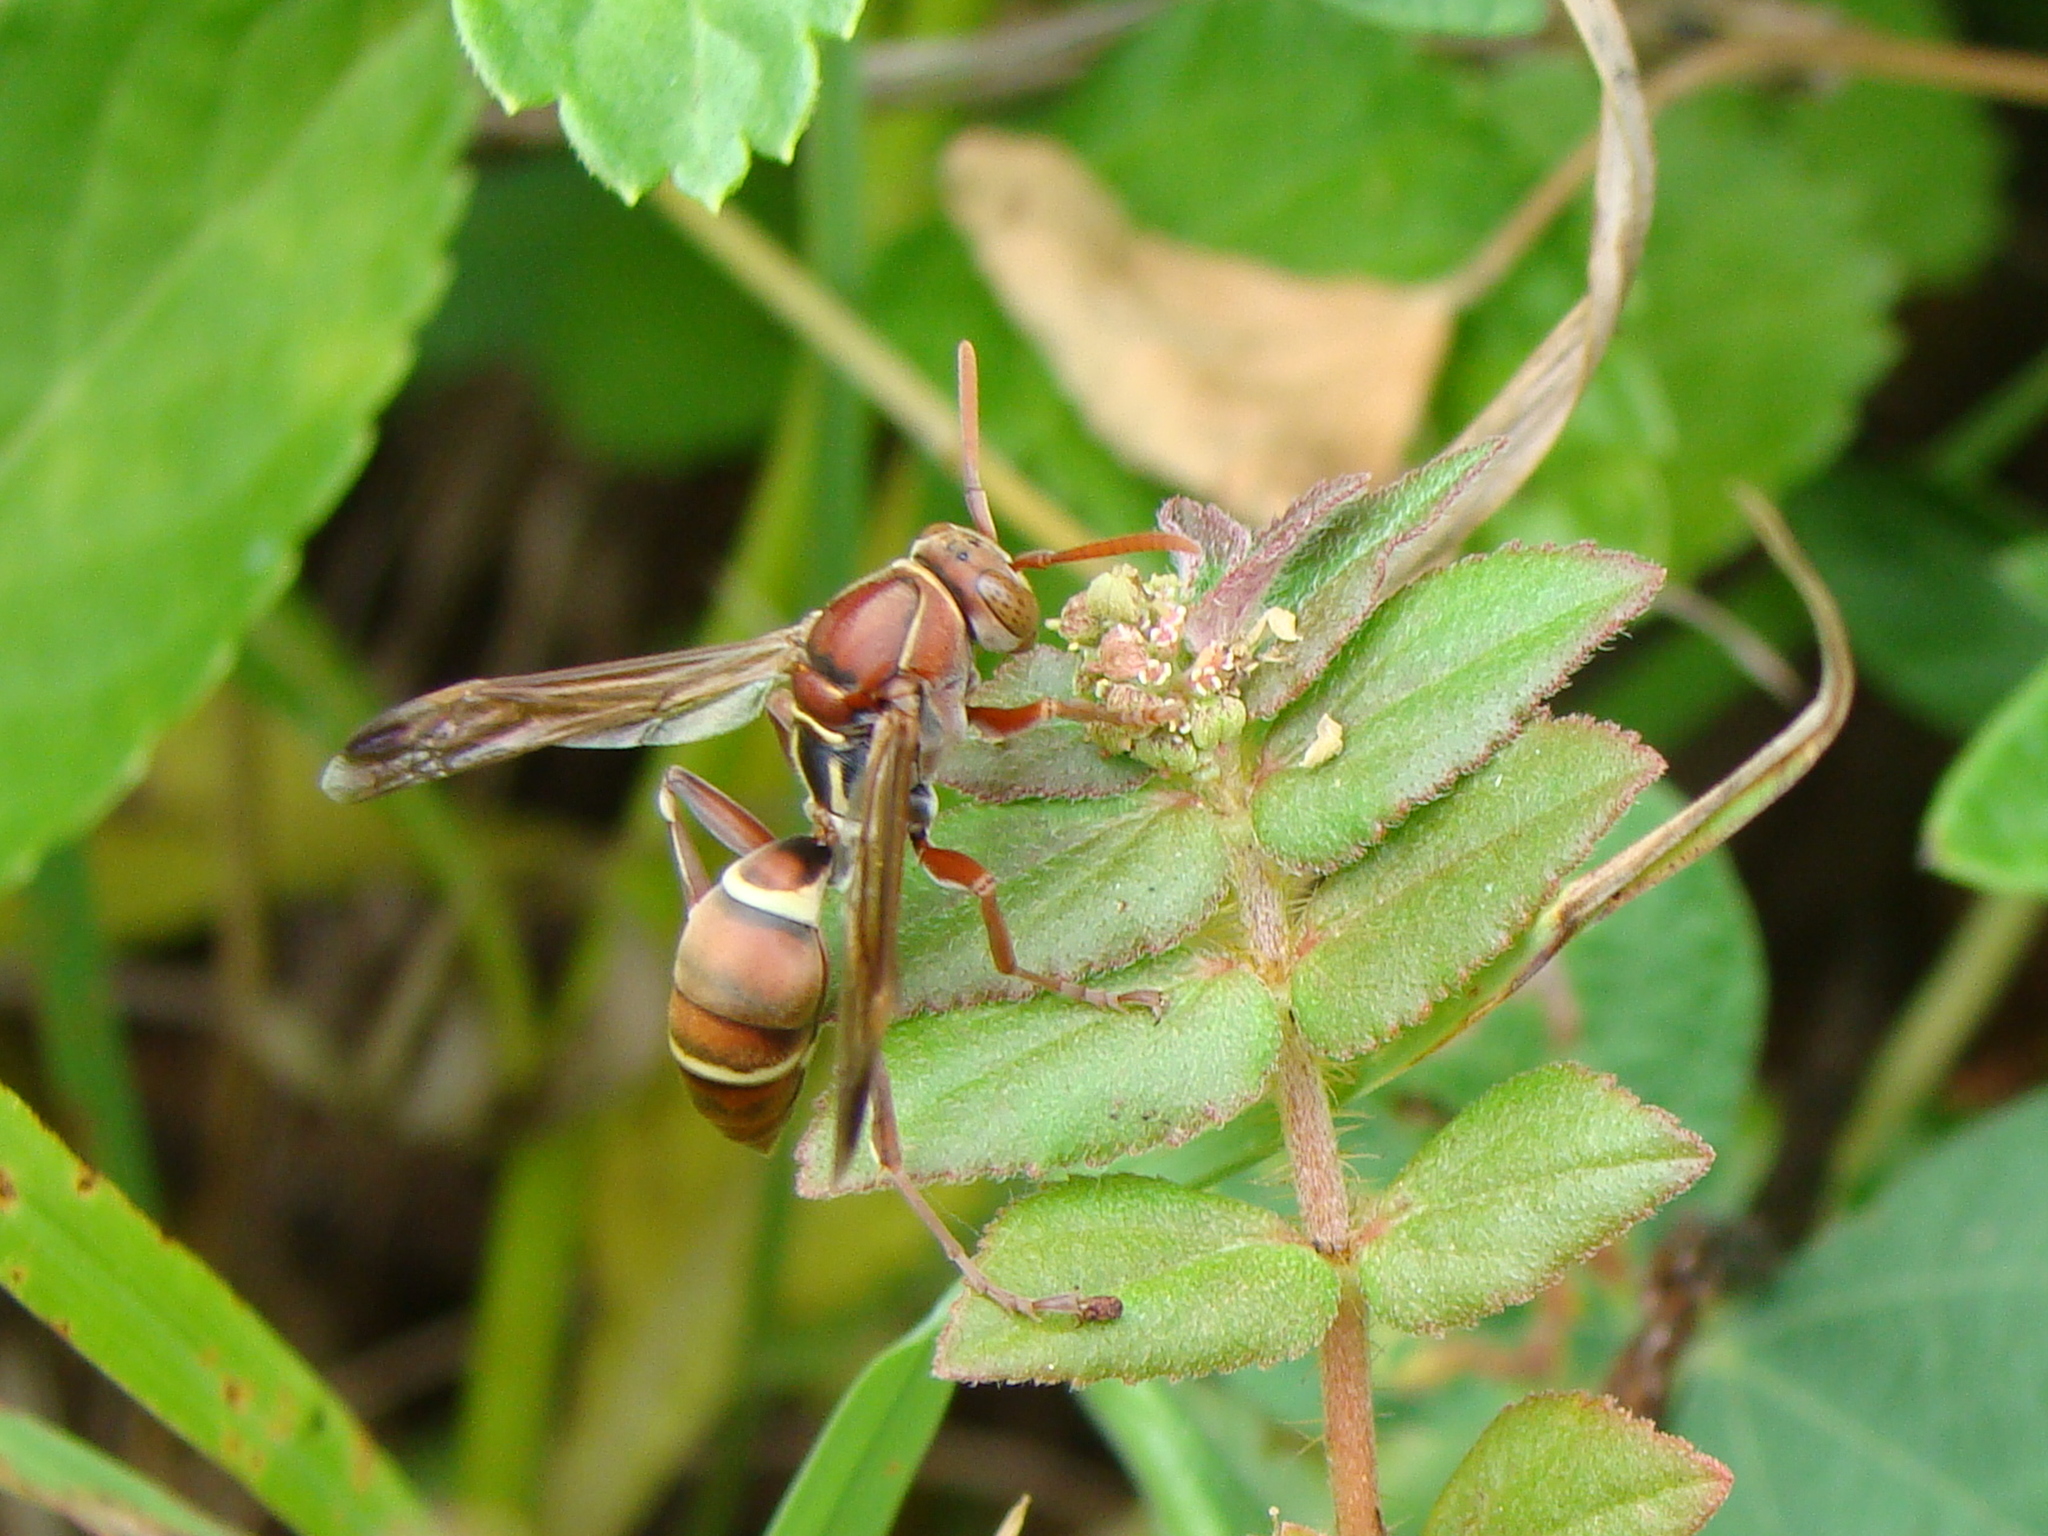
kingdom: Animalia
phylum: Arthropoda
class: Insecta
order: Hymenoptera
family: Eumenidae
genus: Polistes
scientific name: Polistes stigma
